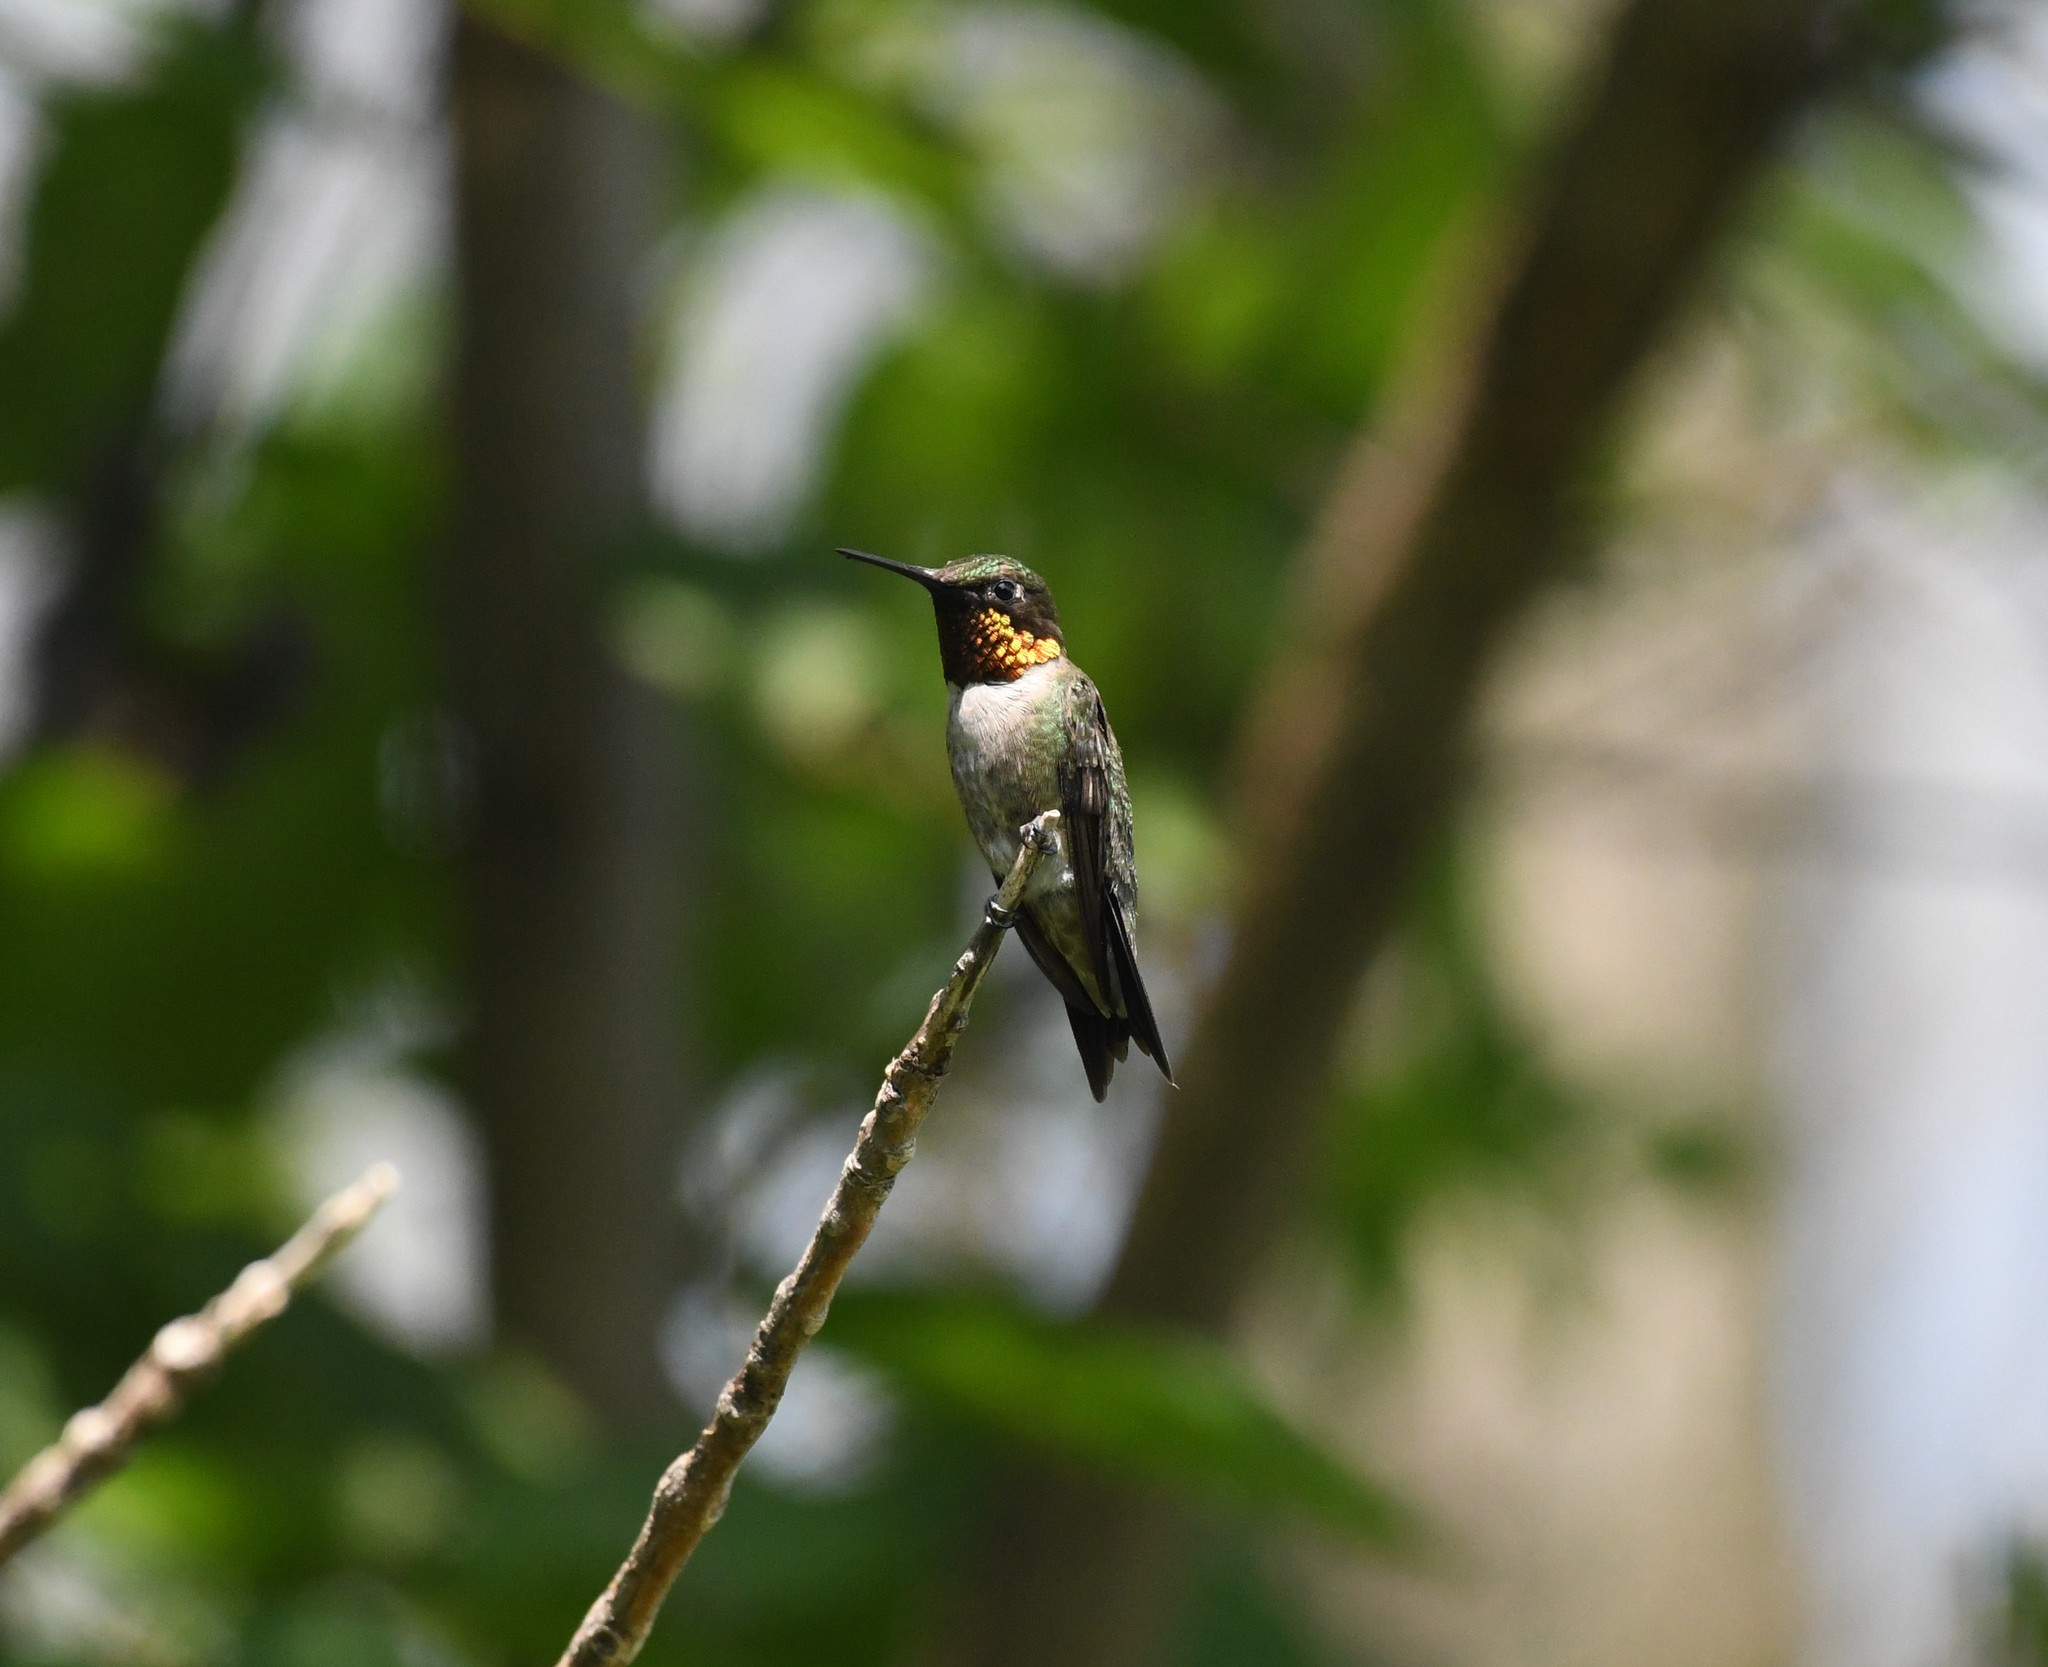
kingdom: Animalia
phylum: Chordata
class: Aves
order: Apodiformes
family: Trochilidae
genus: Archilochus
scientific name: Archilochus colubris
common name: Ruby-throated hummingbird
